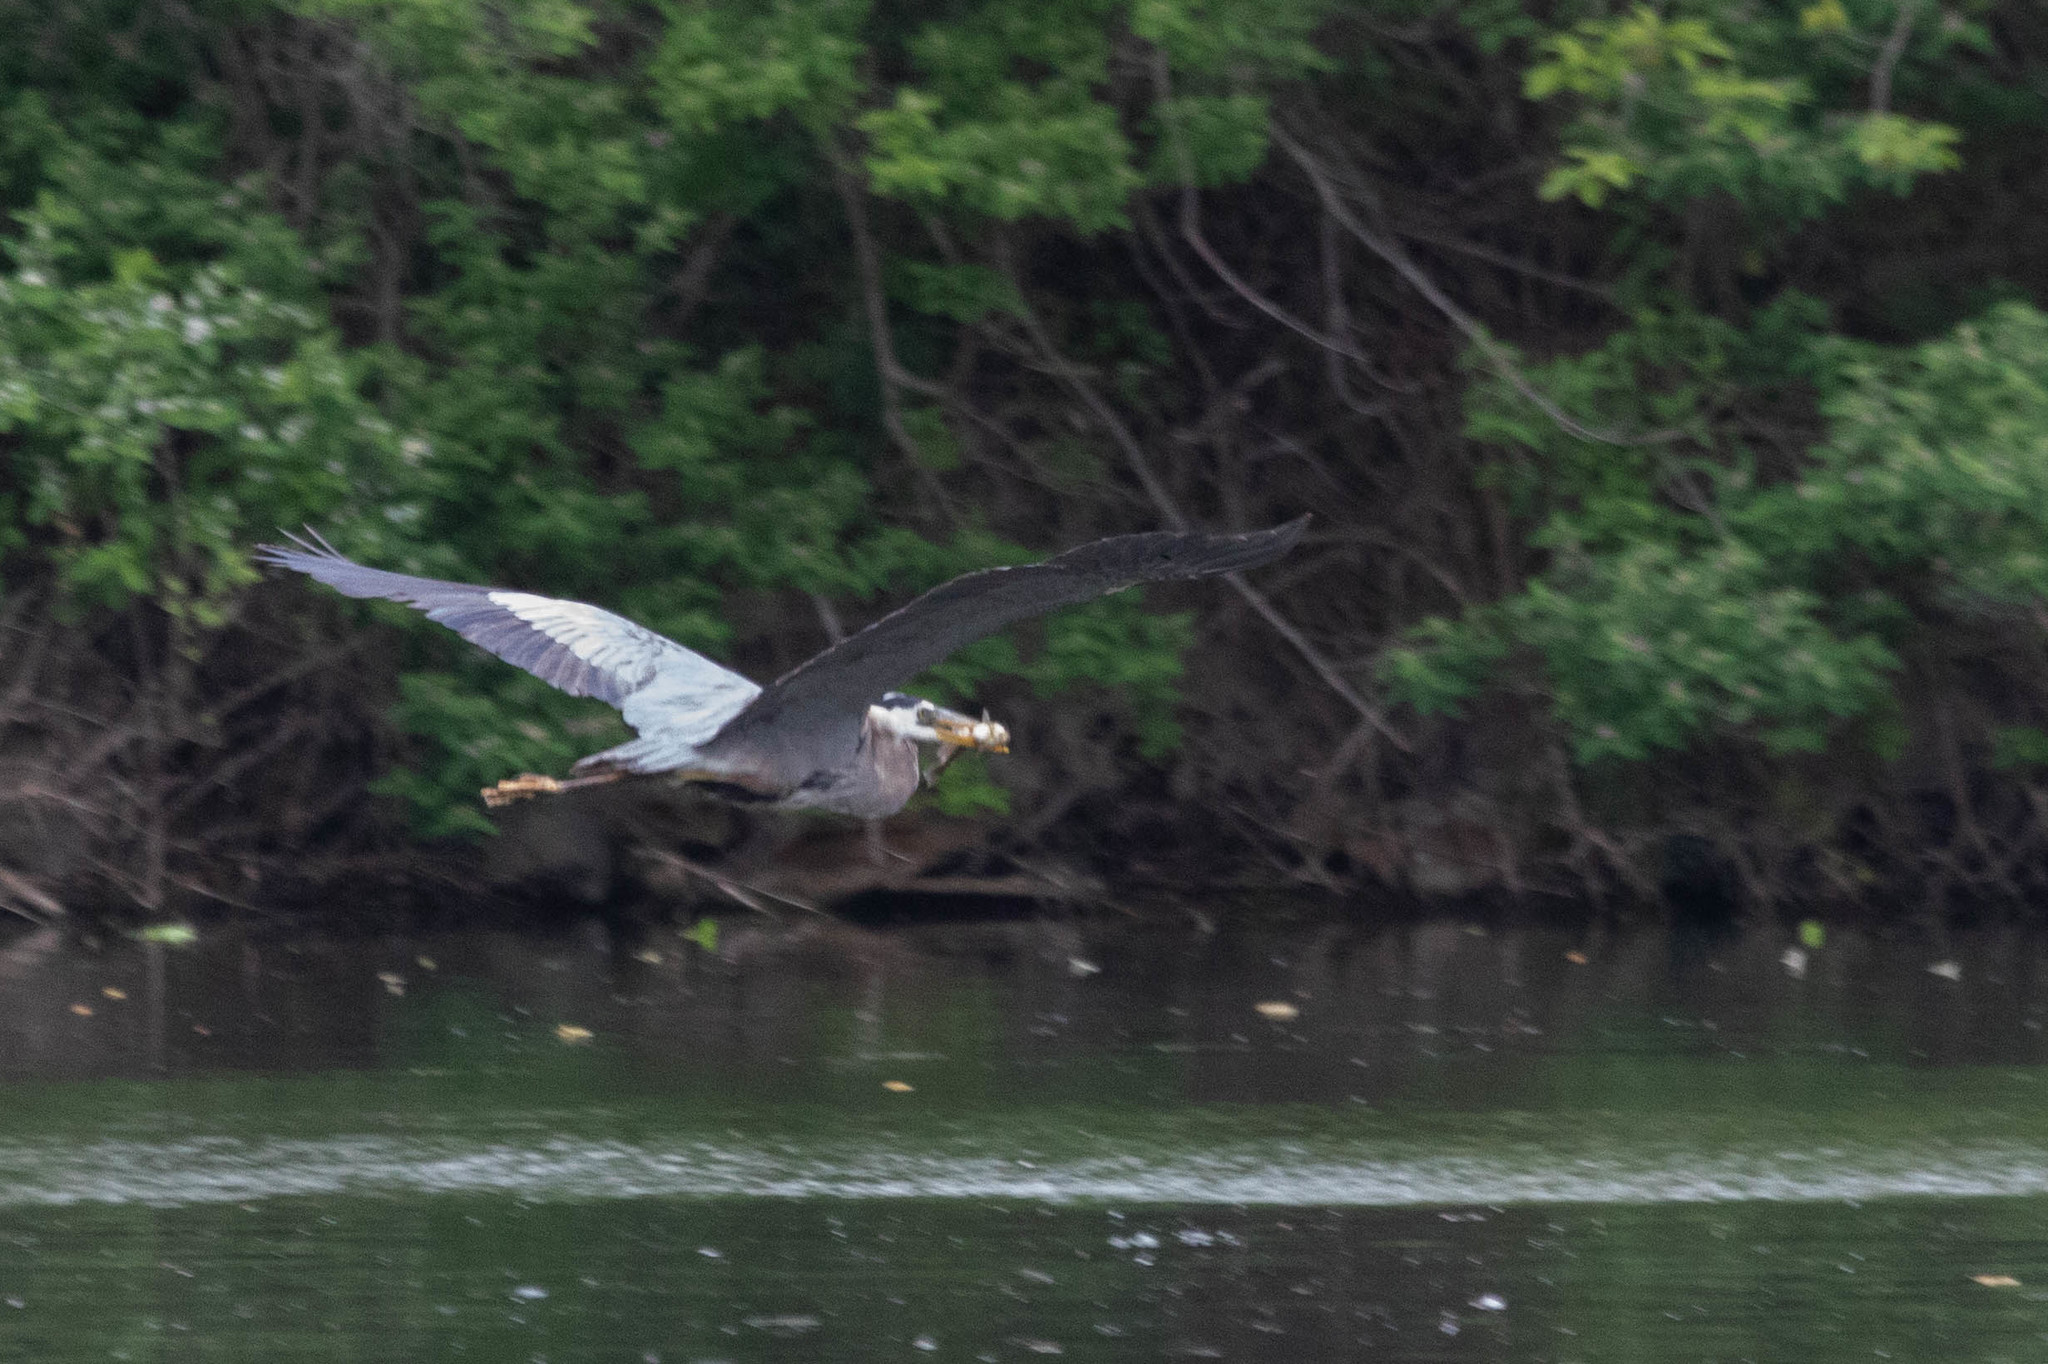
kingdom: Animalia
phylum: Chordata
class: Aves
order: Pelecaniformes
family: Ardeidae
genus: Ardea
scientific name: Ardea herodias
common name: Great blue heron
